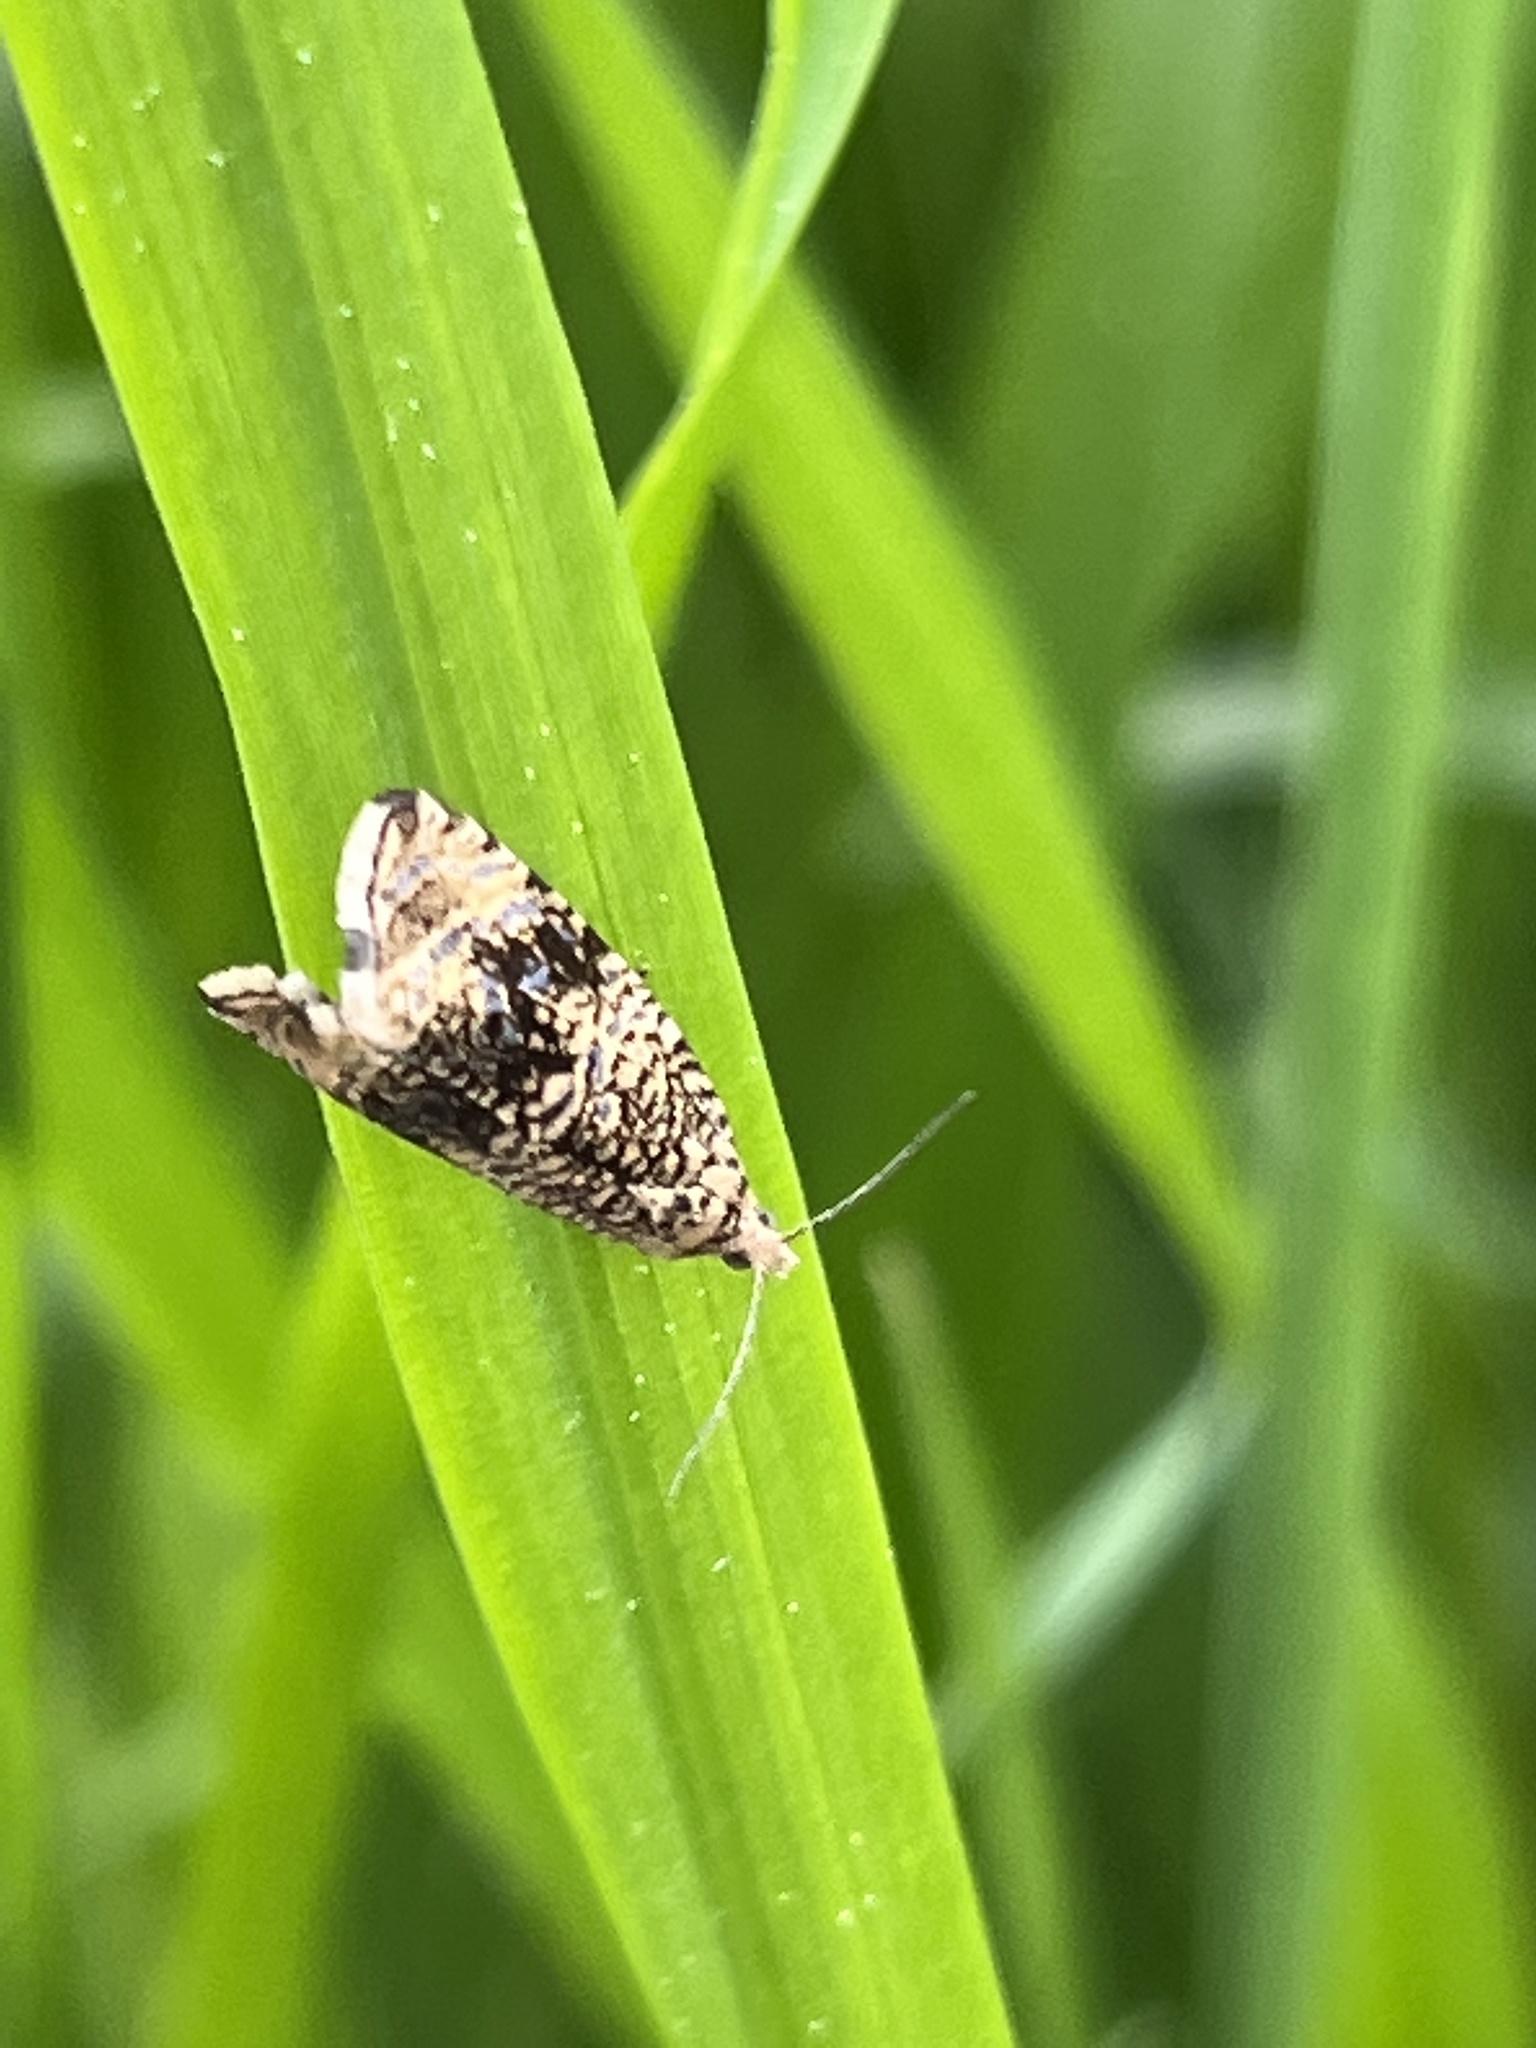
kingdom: Animalia
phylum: Arthropoda
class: Insecta
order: Lepidoptera
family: Tortricidae
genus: Syricoris
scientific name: Syricoris lacunana
